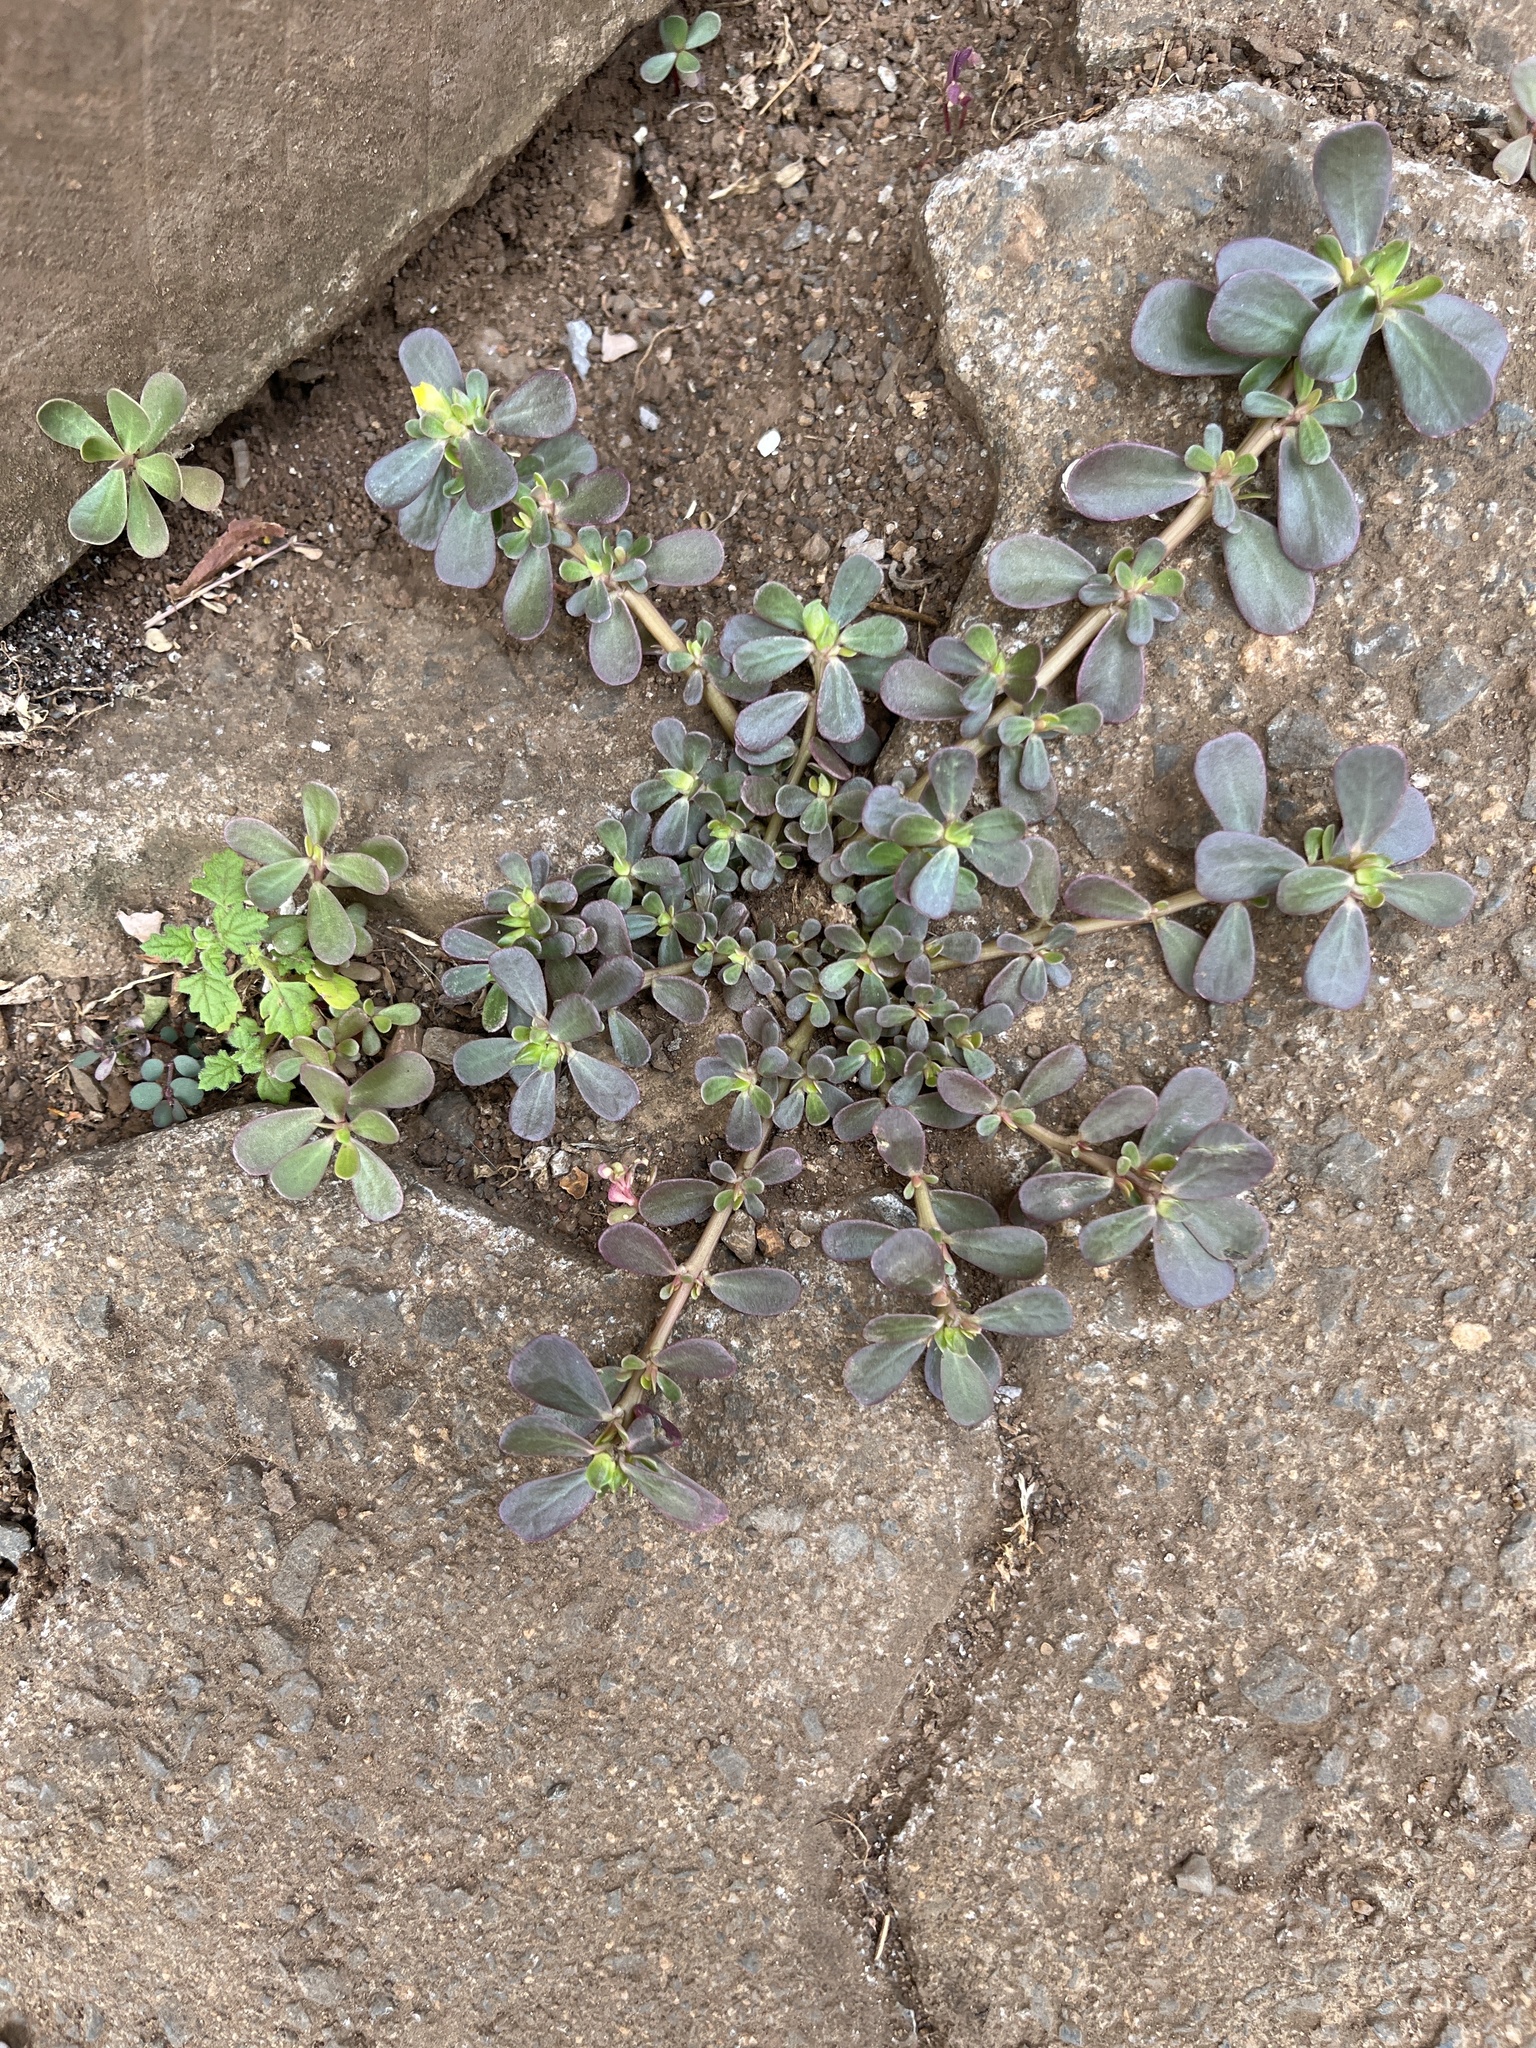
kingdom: Plantae
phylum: Tracheophyta
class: Magnoliopsida
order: Caryophyllales
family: Portulacaceae
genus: Portulaca
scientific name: Portulaca oleracea
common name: Common purslane
